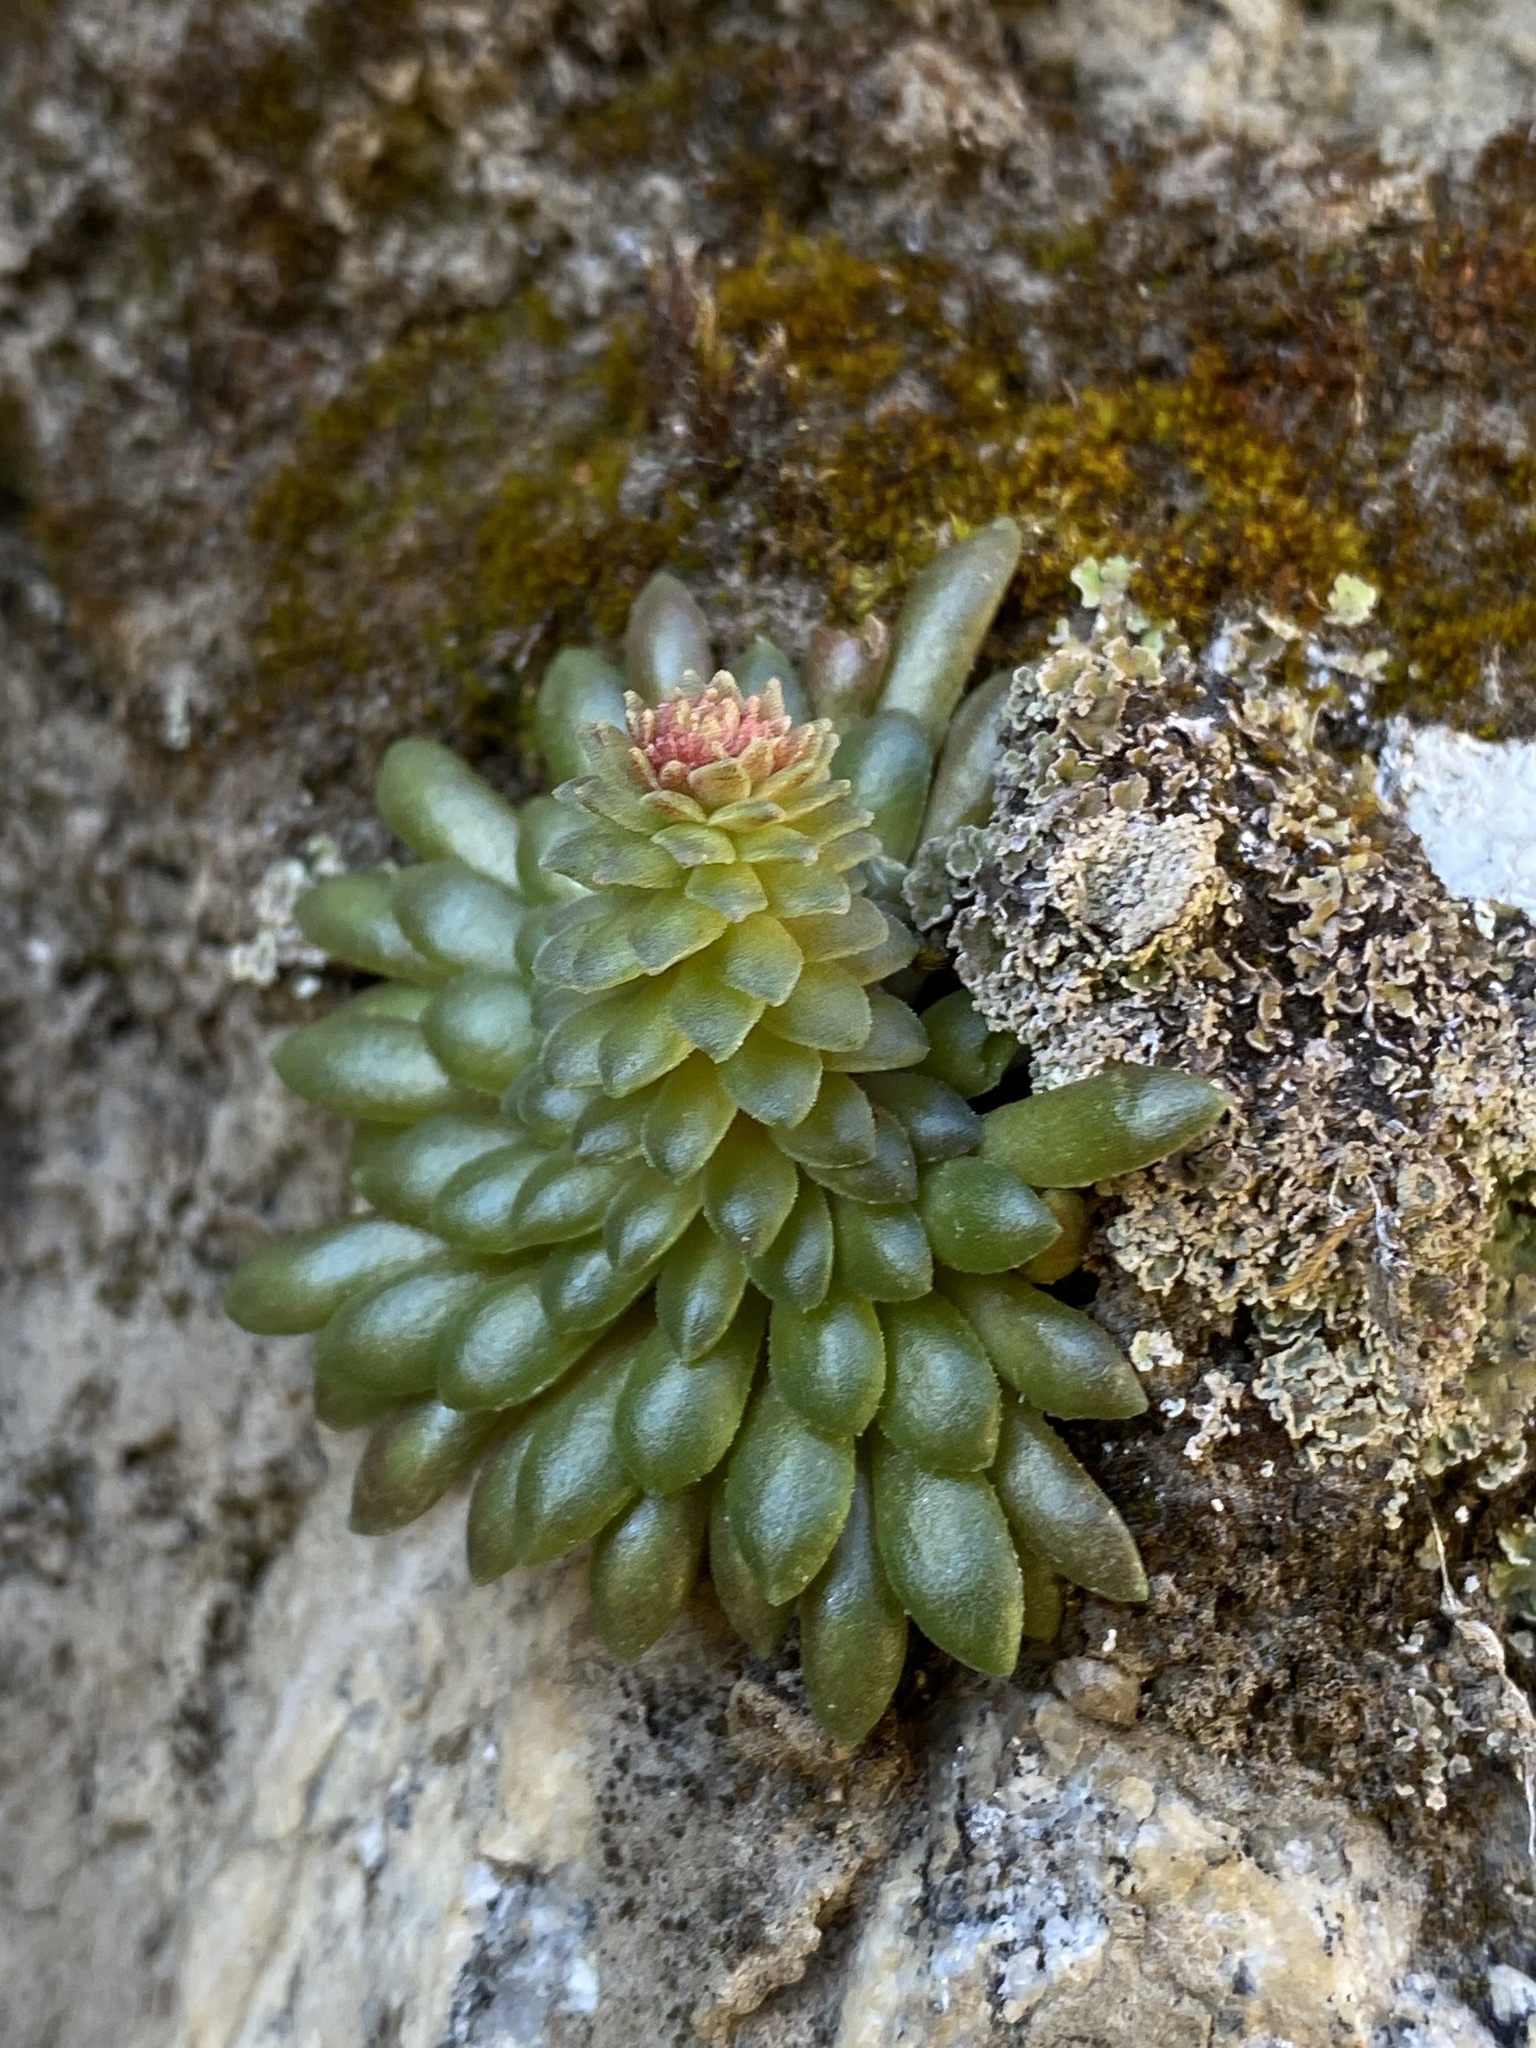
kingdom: Plantae
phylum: Tracheophyta
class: Magnoliopsida
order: Saxifragales
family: Crassulaceae
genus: Sedum
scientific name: Sedum valens
